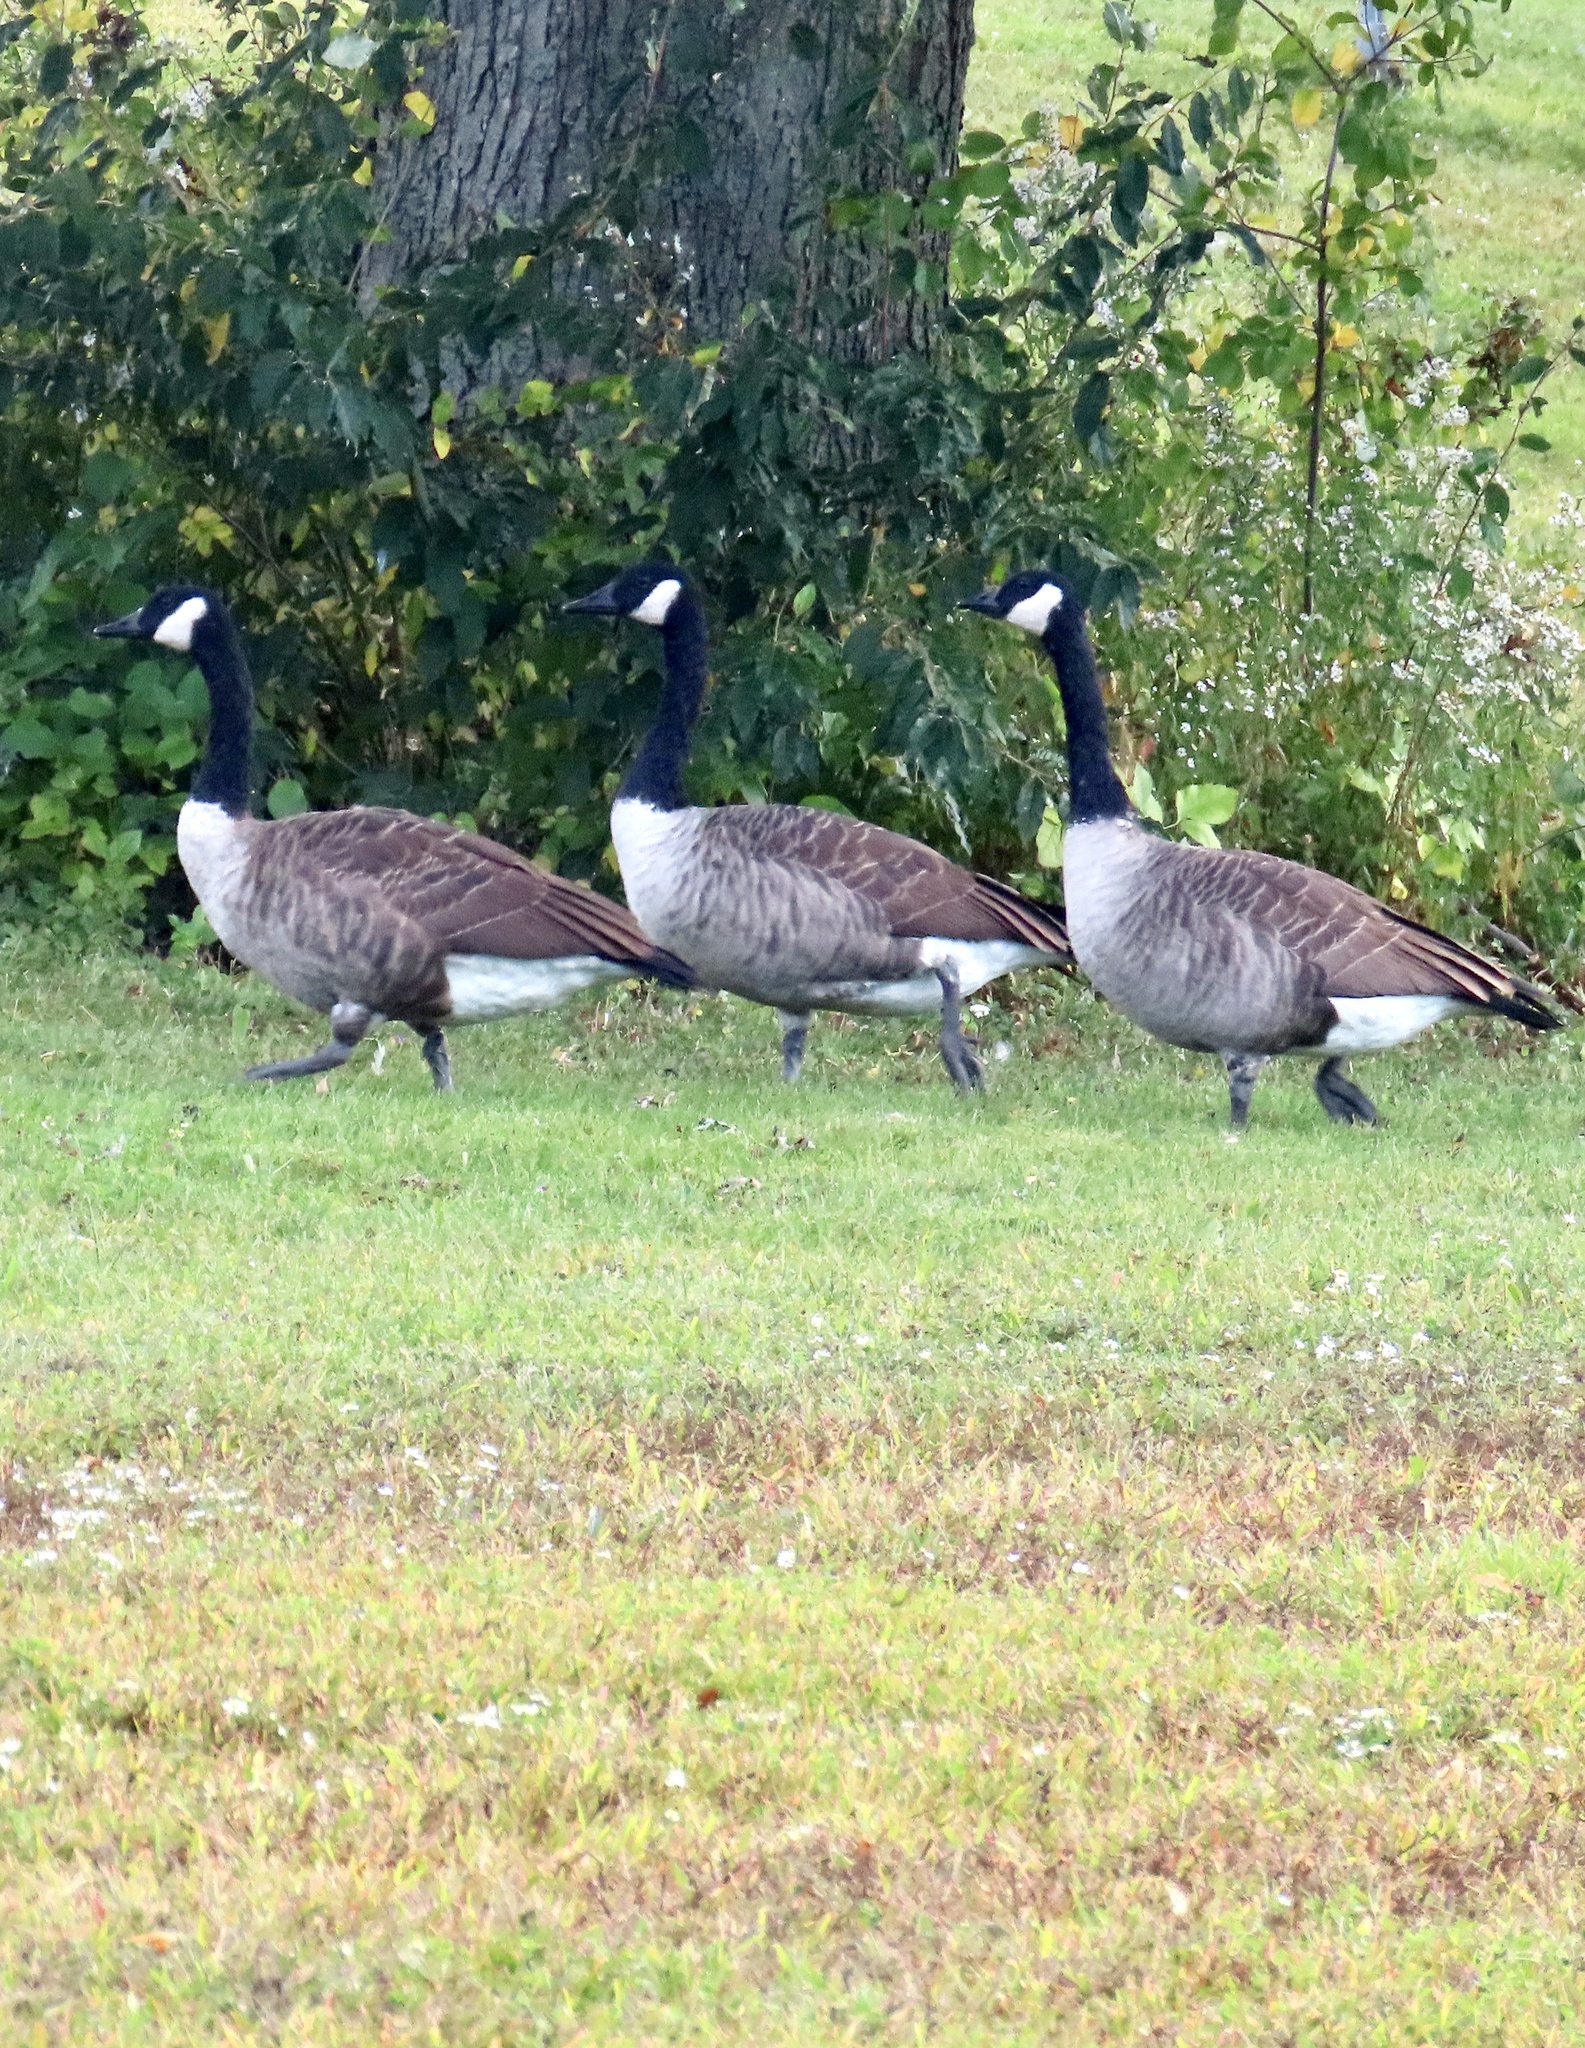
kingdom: Animalia
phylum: Chordata
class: Aves
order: Anseriformes
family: Anatidae
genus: Branta
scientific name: Branta canadensis
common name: Canada goose
